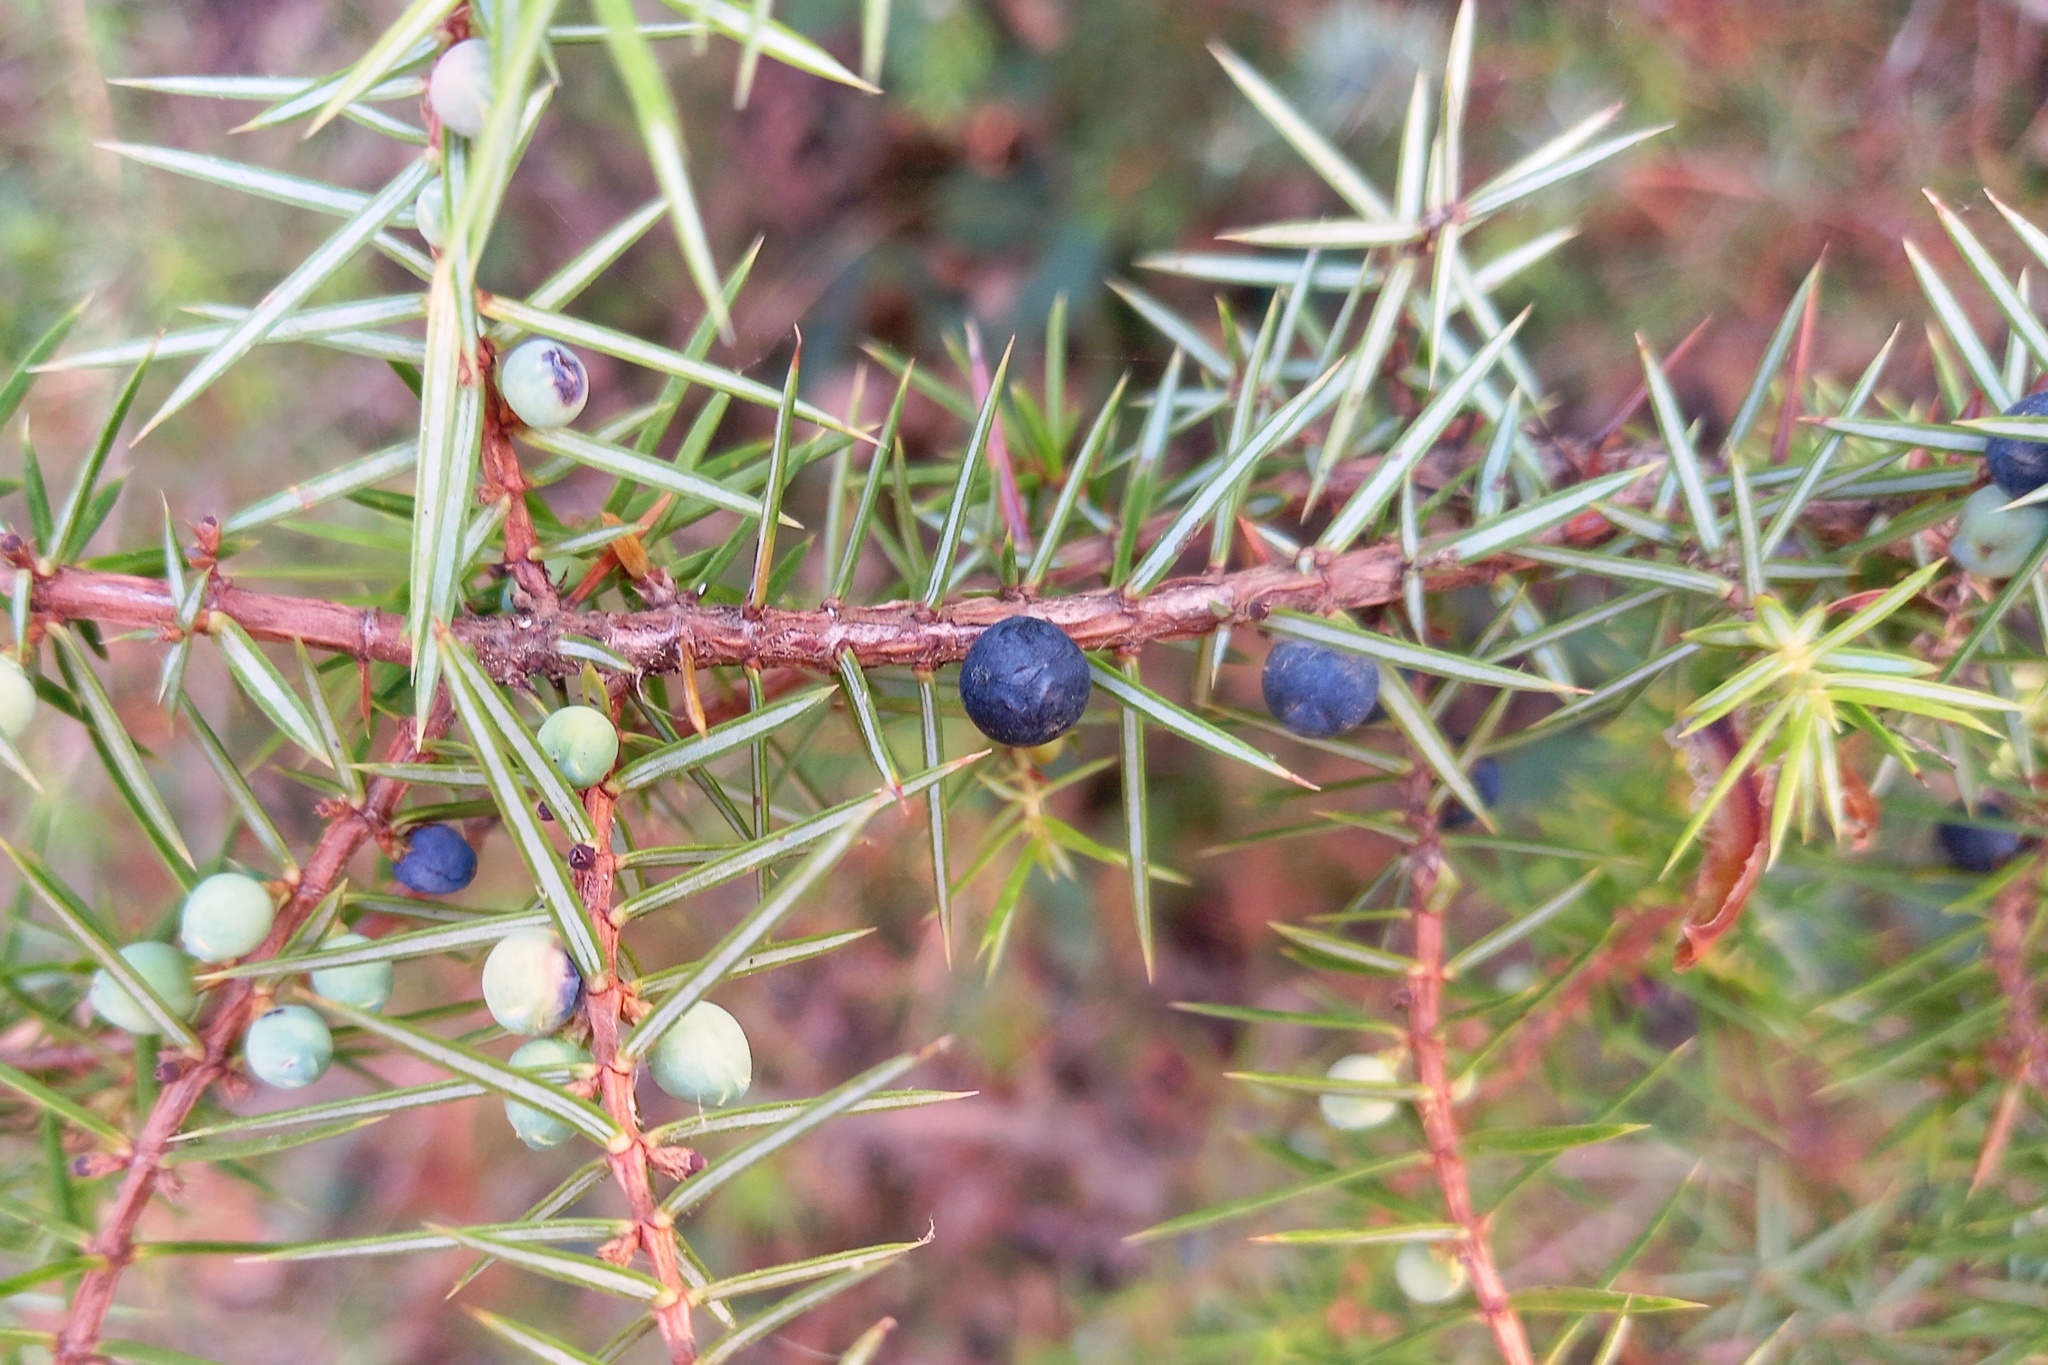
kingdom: Plantae
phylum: Tracheophyta
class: Pinopsida
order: Pinales
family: Cupressaceae
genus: Juniperus
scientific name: Juniperus communis
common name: Common juniper
